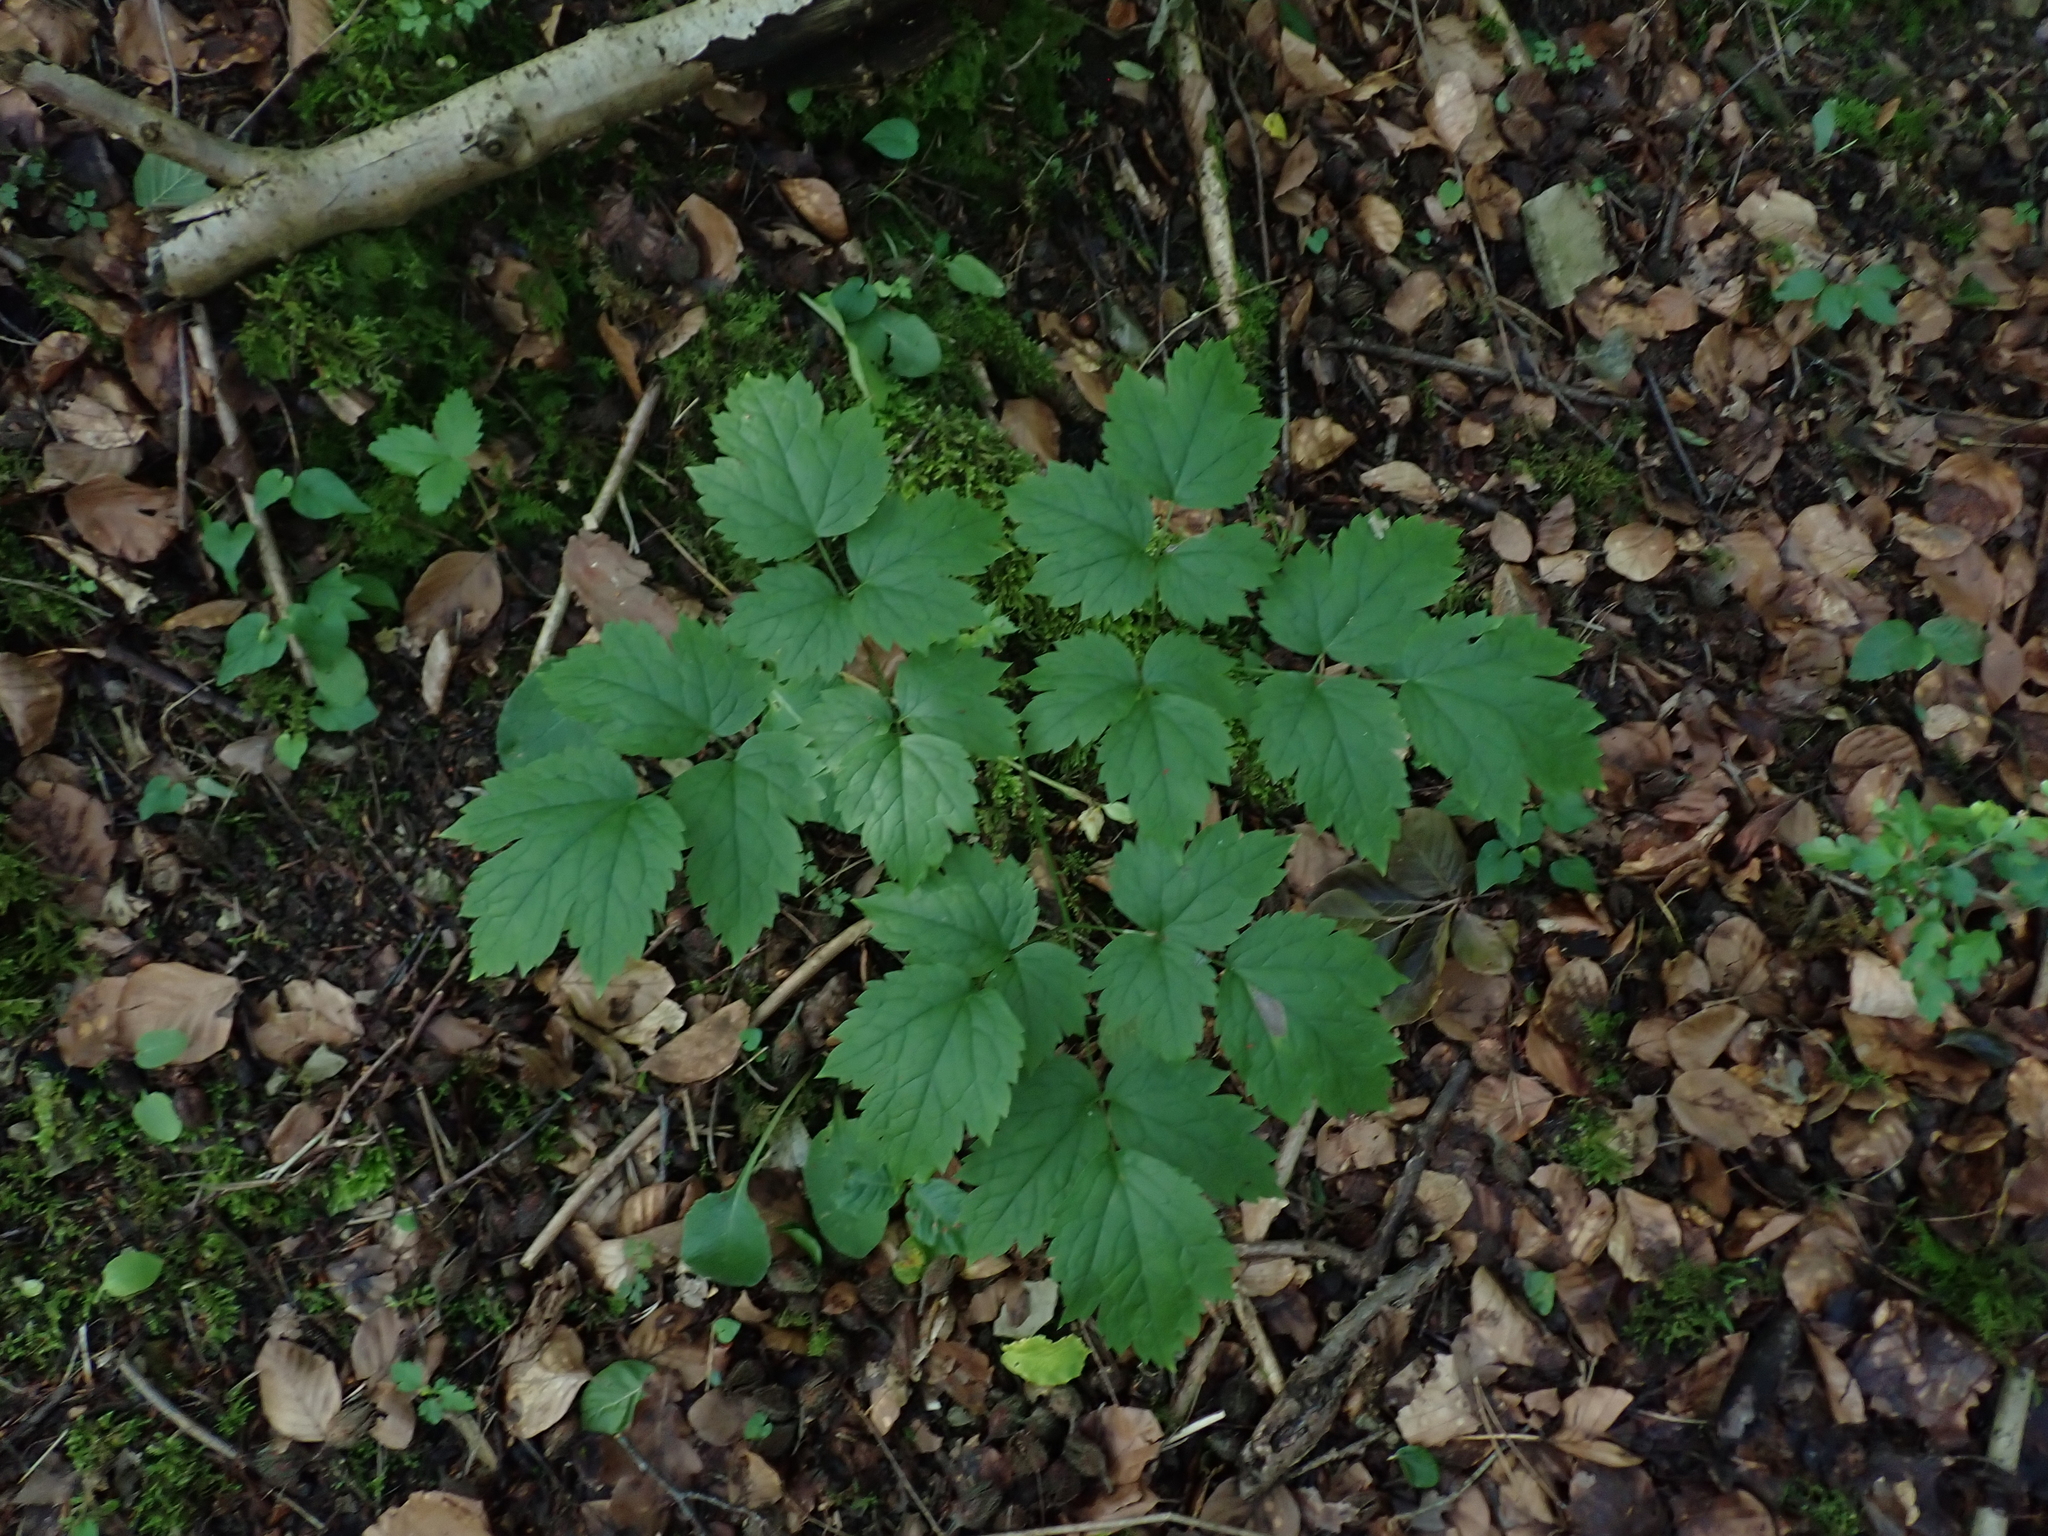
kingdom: Plantae
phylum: Tracheophyta
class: Magnoliopsida
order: Ranunculales
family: Ranunculaceae
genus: Actaea
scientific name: Actaea spicata
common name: Baneberry
